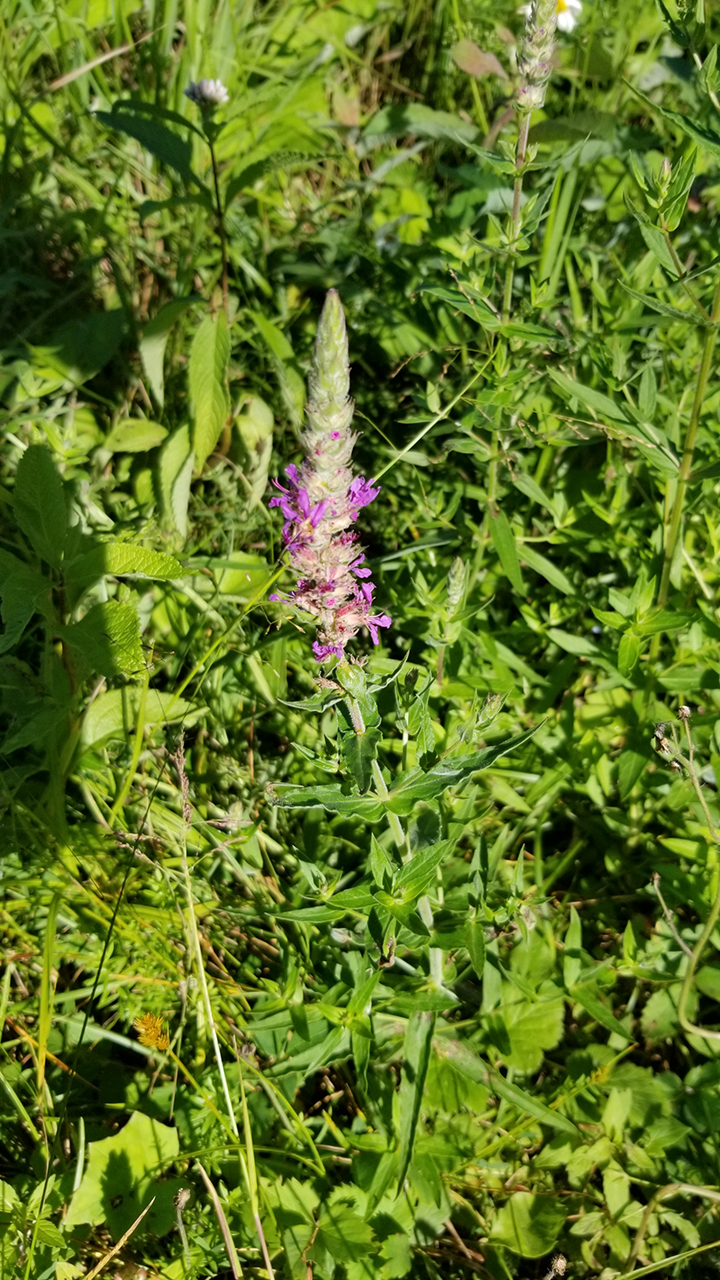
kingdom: Plantae
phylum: Tracheophyta
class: Magnoliopsida
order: Myrtales
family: Lythraceae
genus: Lythrum
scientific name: Lythrum salicaria
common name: Purple loosestrife
